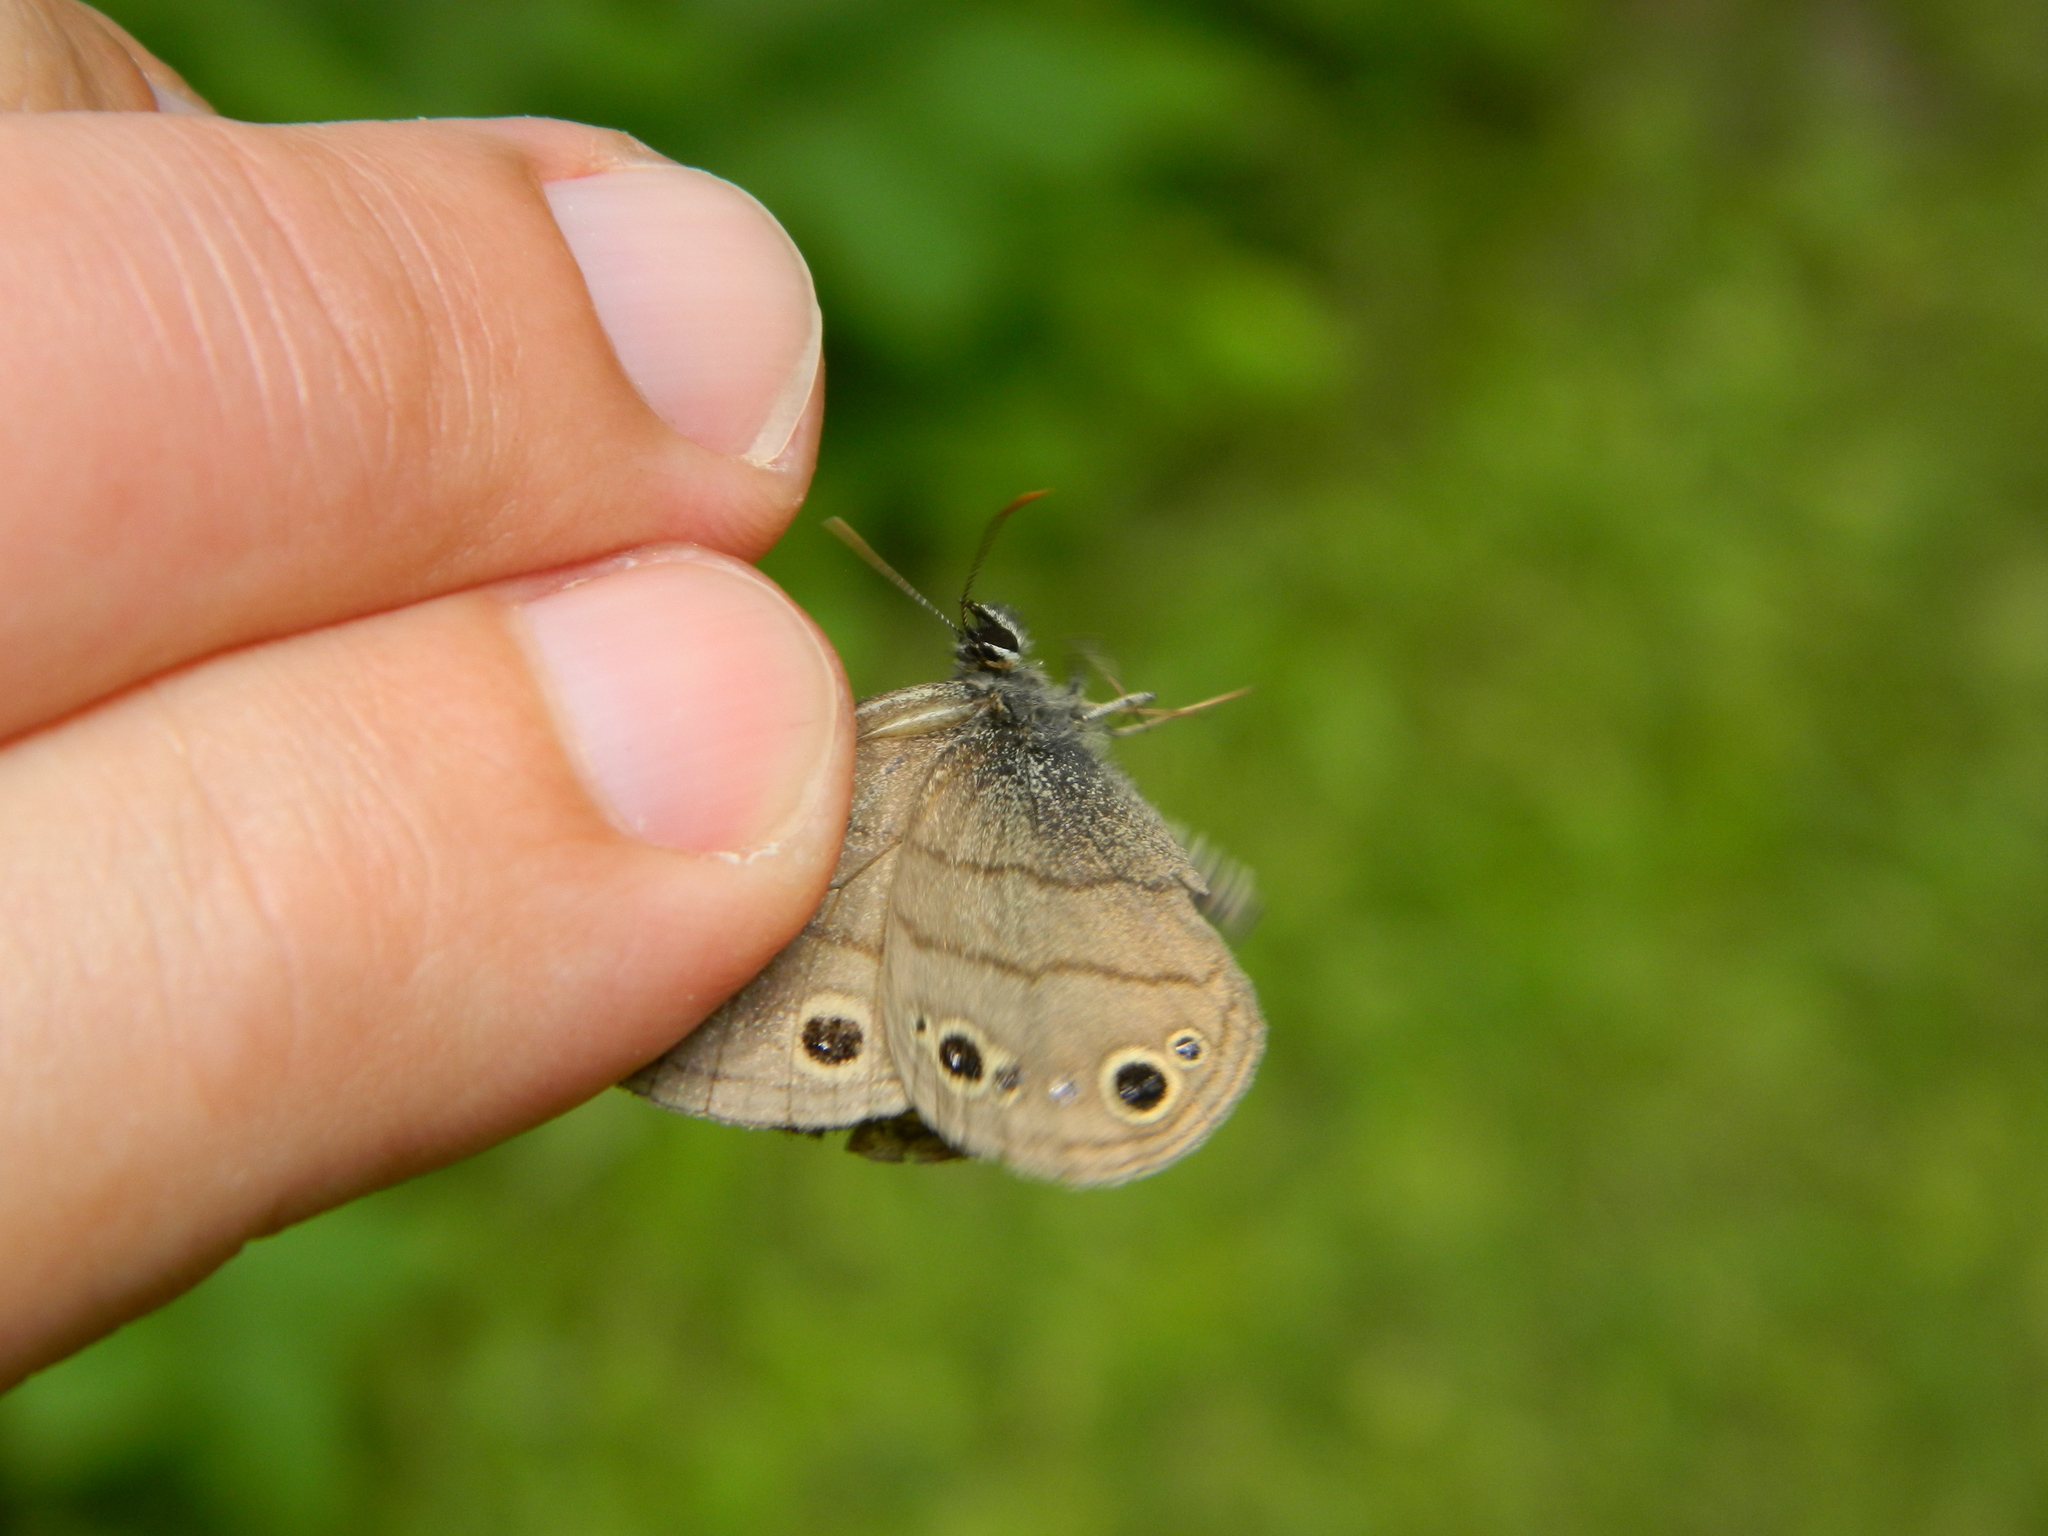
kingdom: Animalia
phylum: Arthropoda
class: Insecta
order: Lepidoptera
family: Nymphalidae
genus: Euptychia
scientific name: Euptychia cymela
